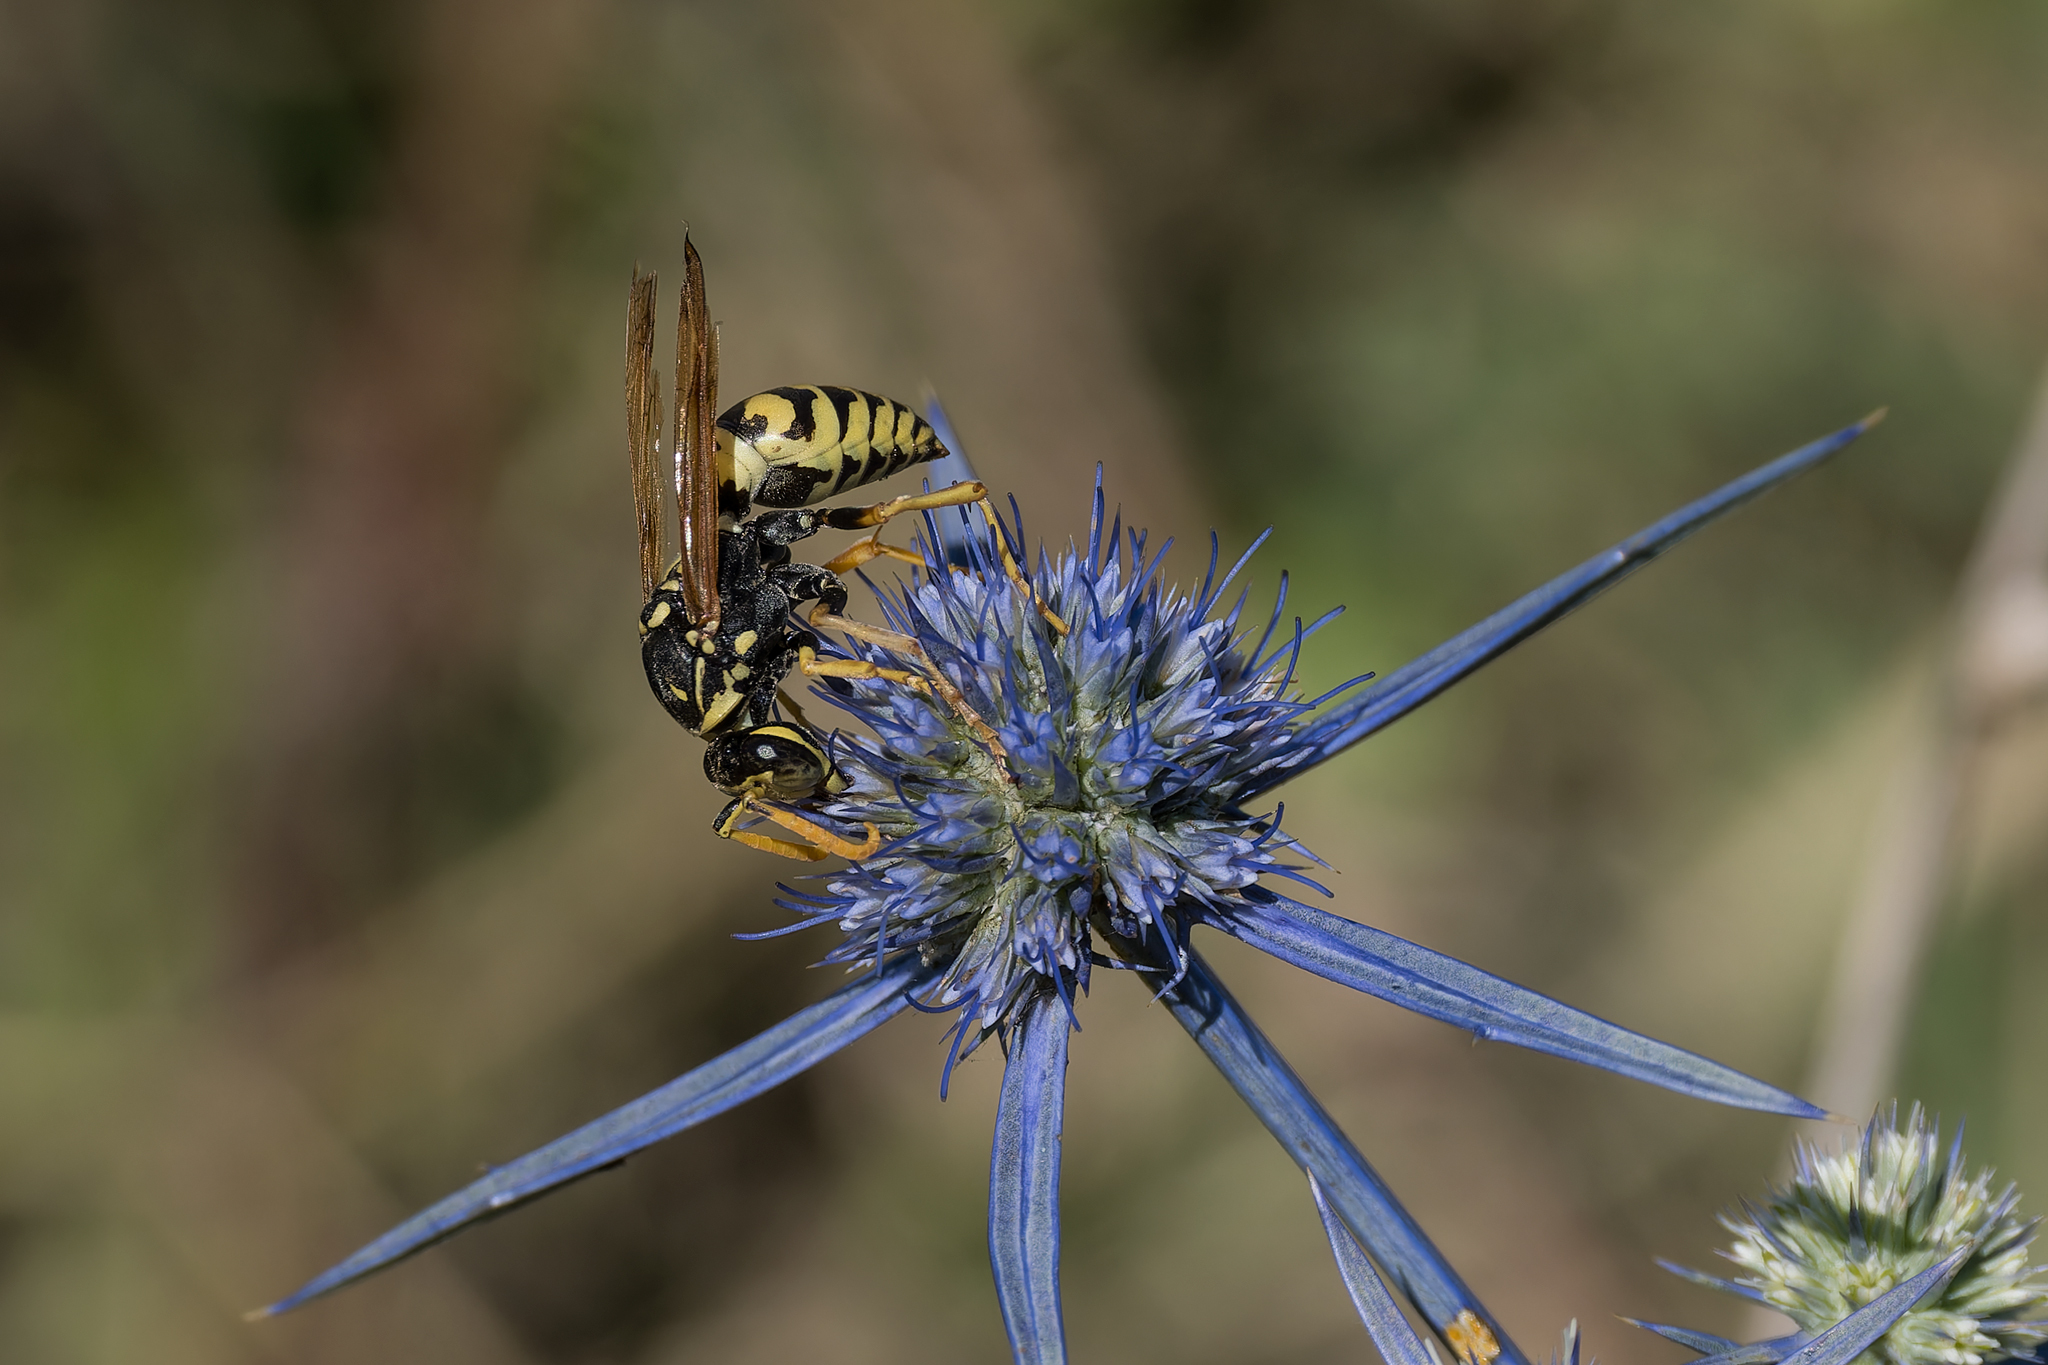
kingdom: Animalia
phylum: Arthropoda
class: Insecta
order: Hymenoptera
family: Eumenidae
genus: Polistes
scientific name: Polistes dominula
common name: Paper wasp
